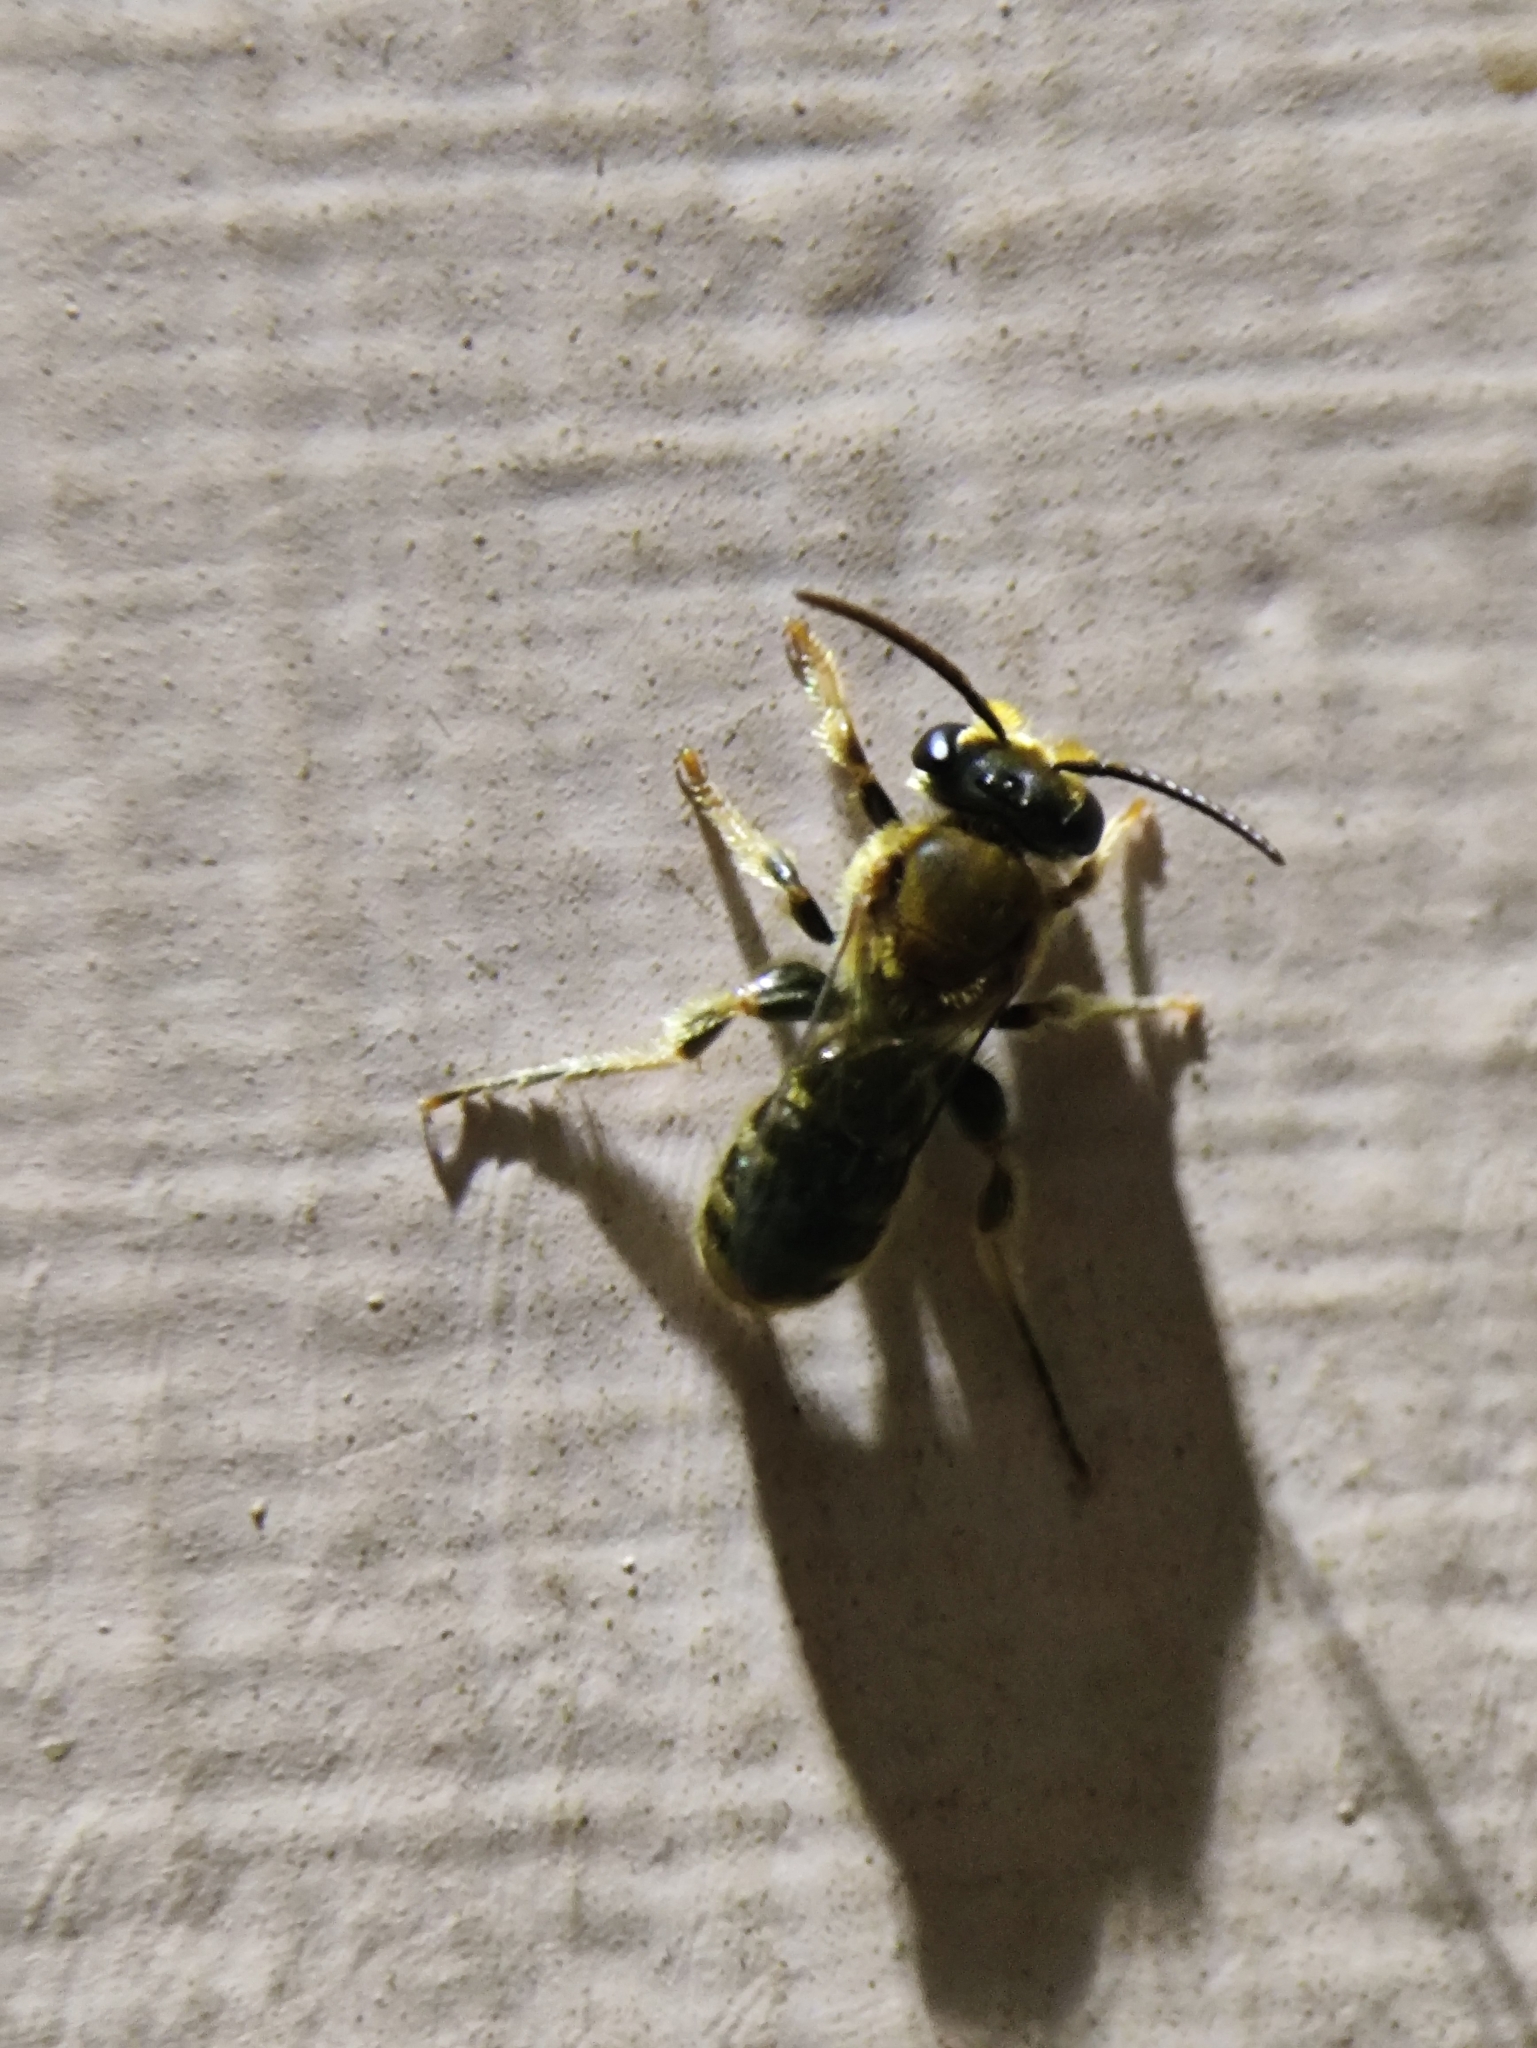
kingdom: Animalia
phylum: Arthropoda
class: Insecta
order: Hymenoptera
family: Halictidae
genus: Lipotriches
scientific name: Lipotriches
